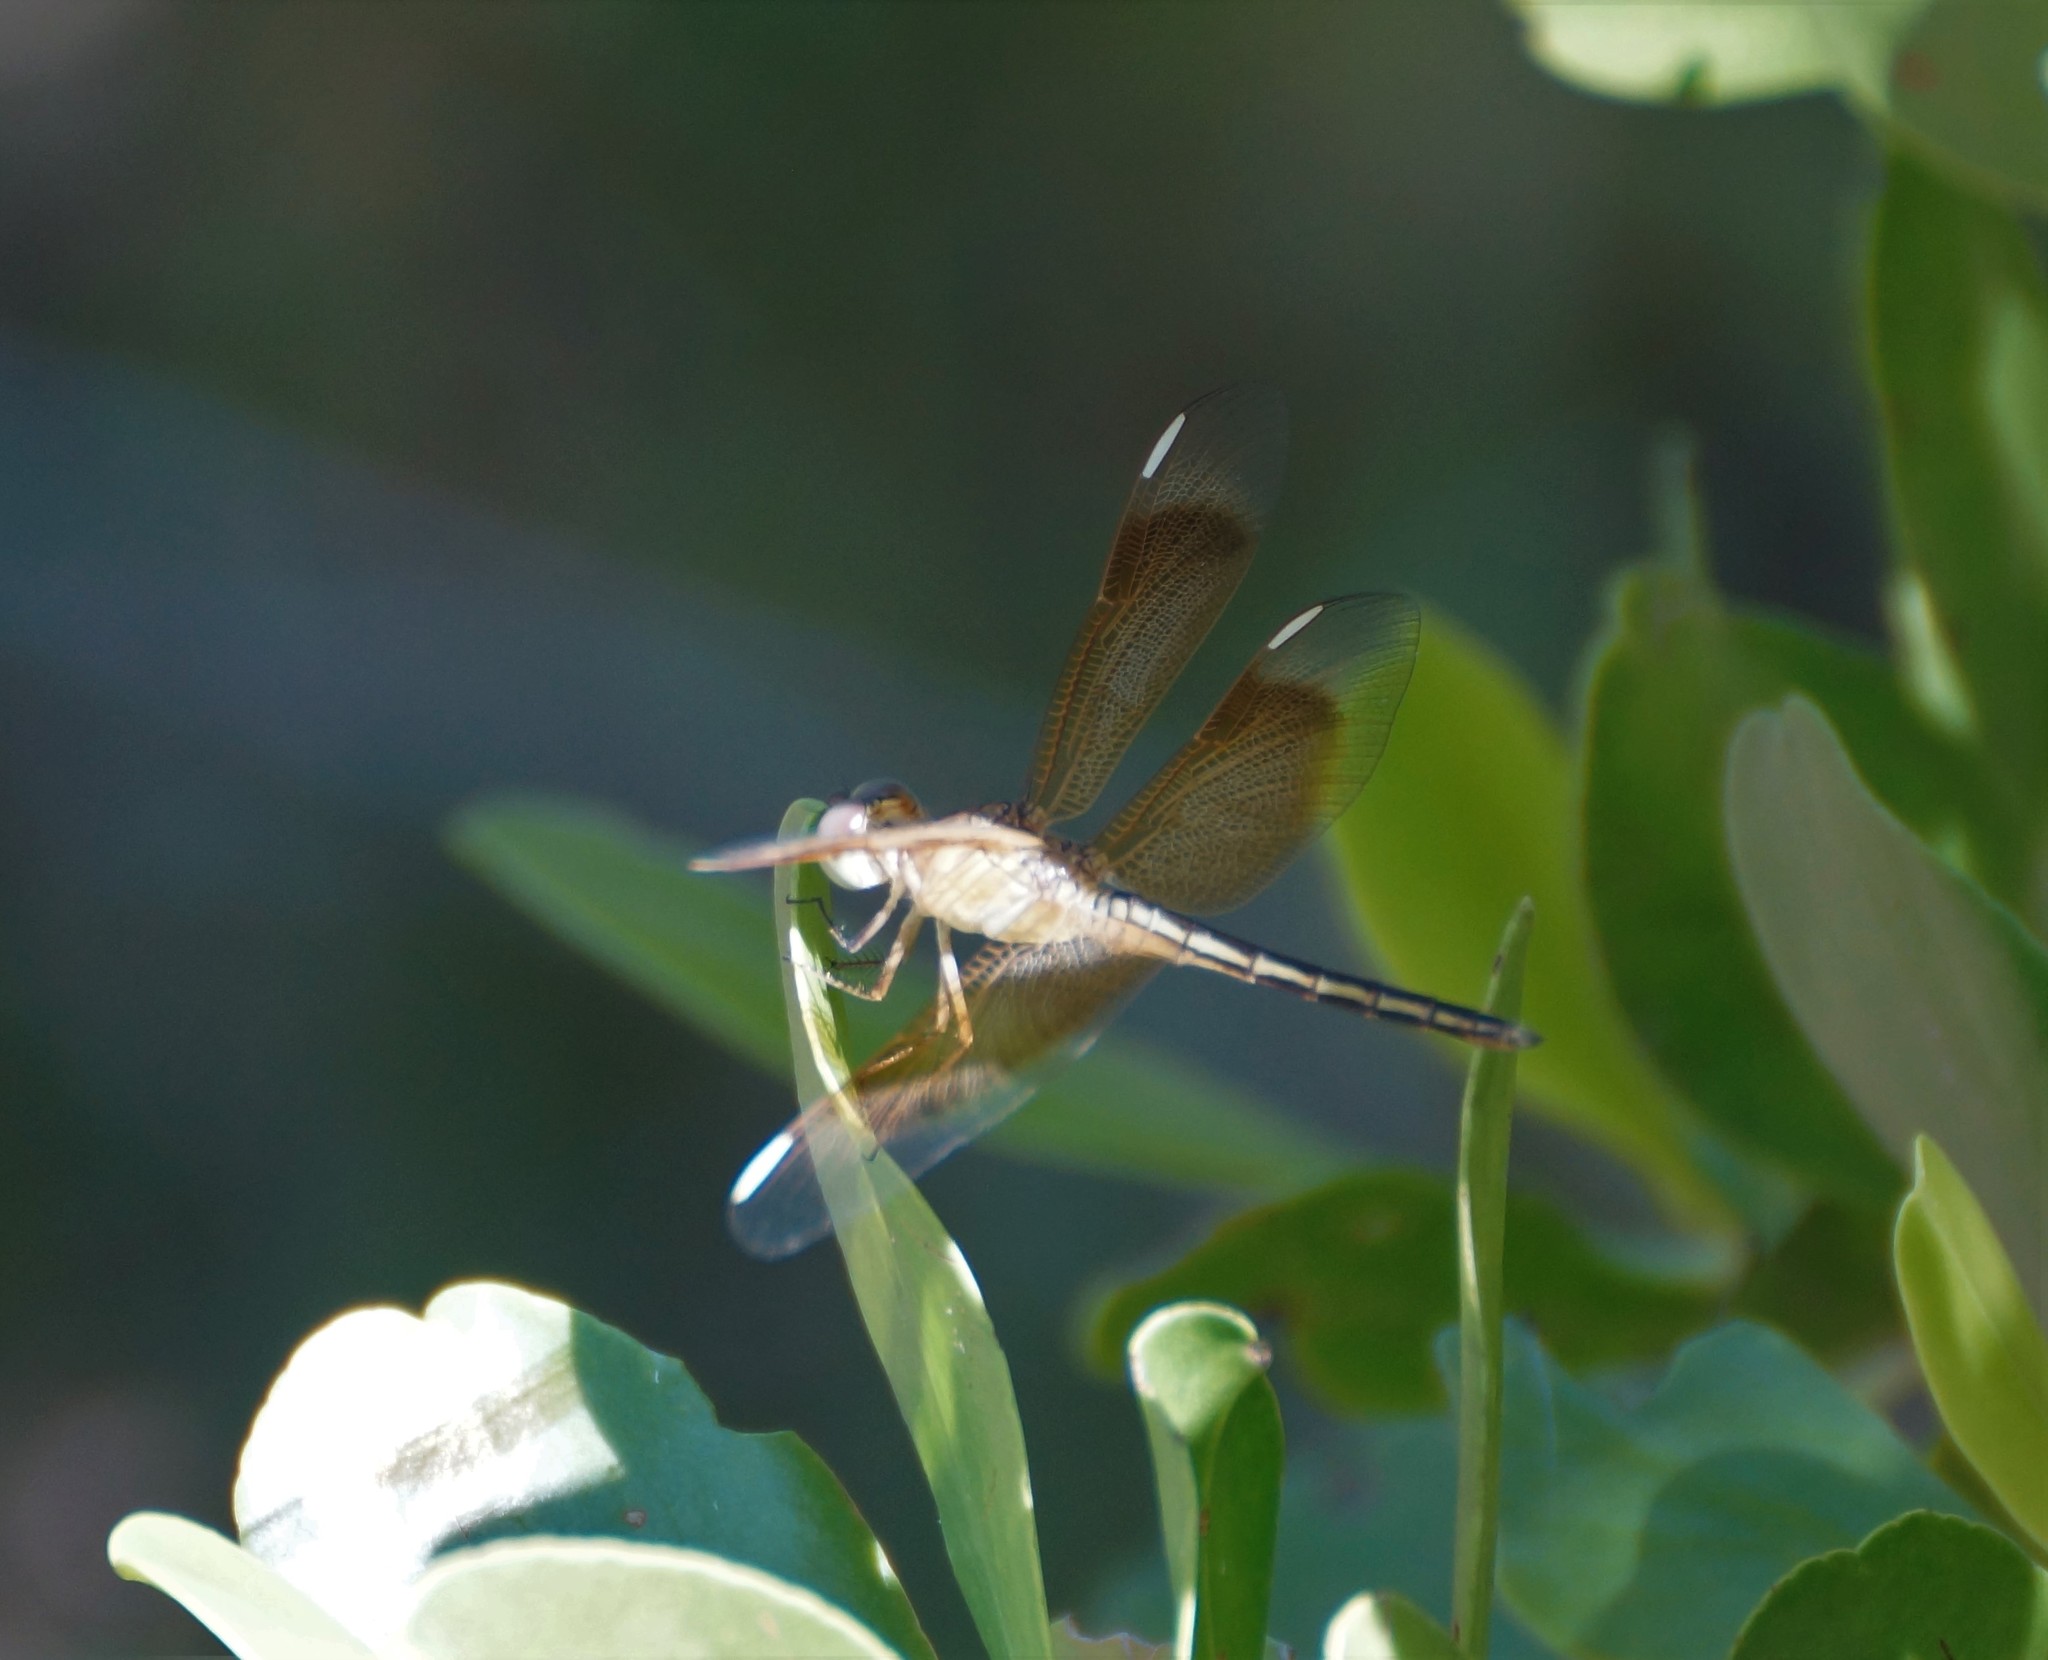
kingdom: Animalia
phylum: Arthropoda
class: Insecta
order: Odonata
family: Libellulidae
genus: Neurothemis
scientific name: Neurothemis stigmatizans
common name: Painted grasshawk
